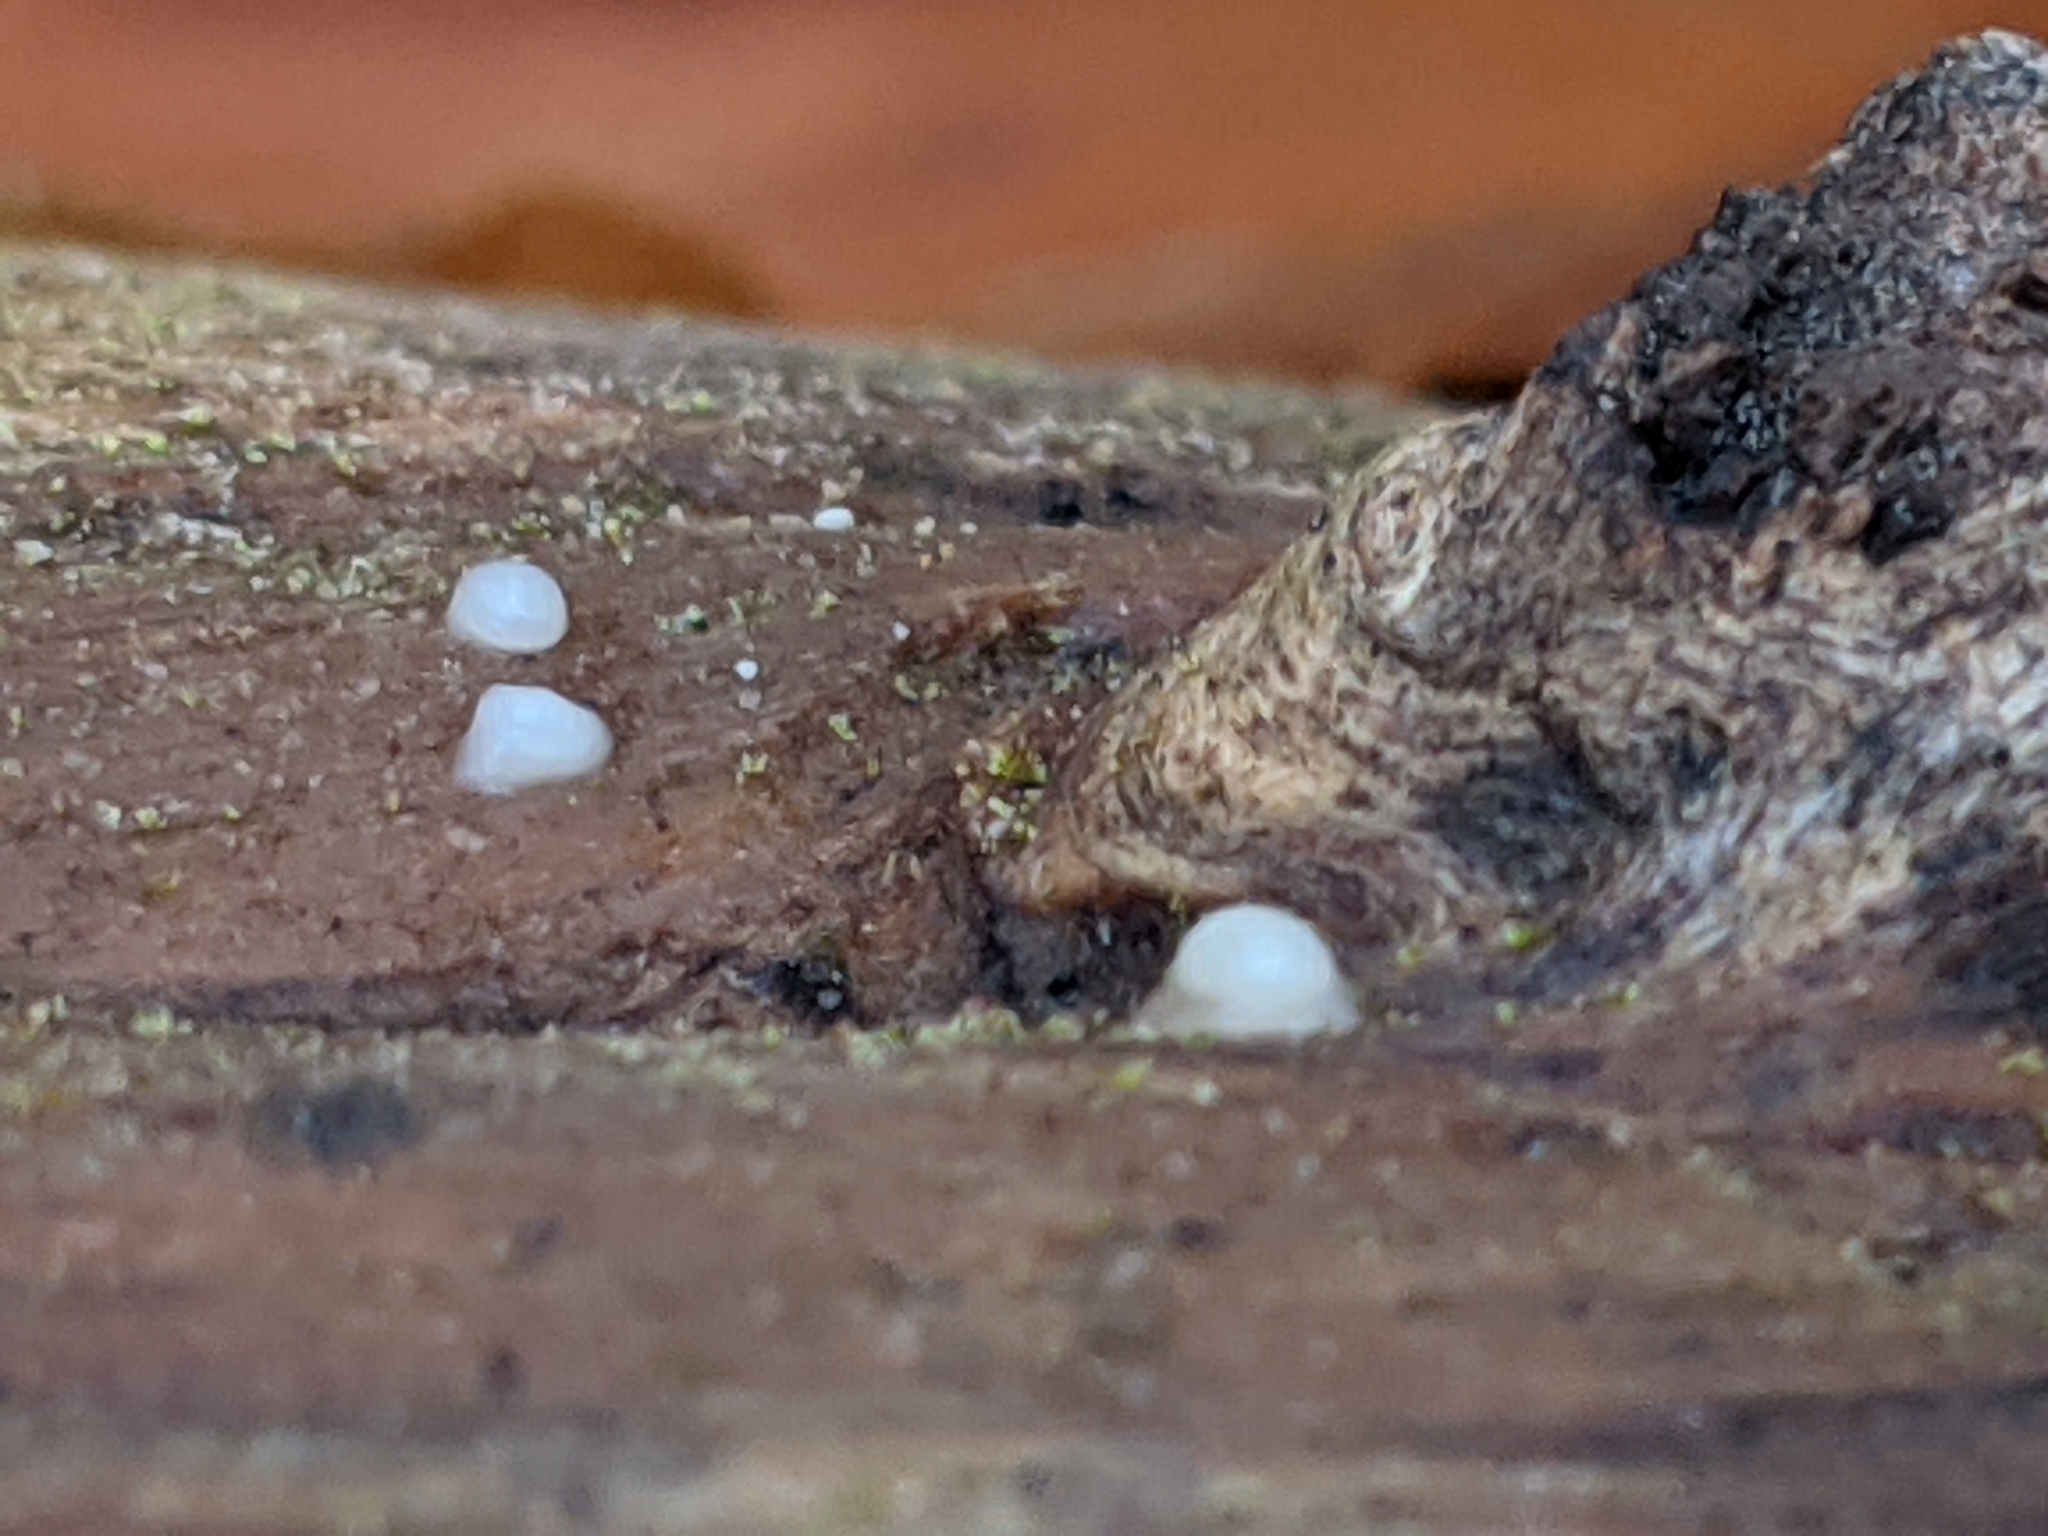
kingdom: Fungi
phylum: Basidiomycota
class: Atractiellomycetes
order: Atractiellales
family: Phleogenaceae
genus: Helicogloea
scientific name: Helicogloea compressa
